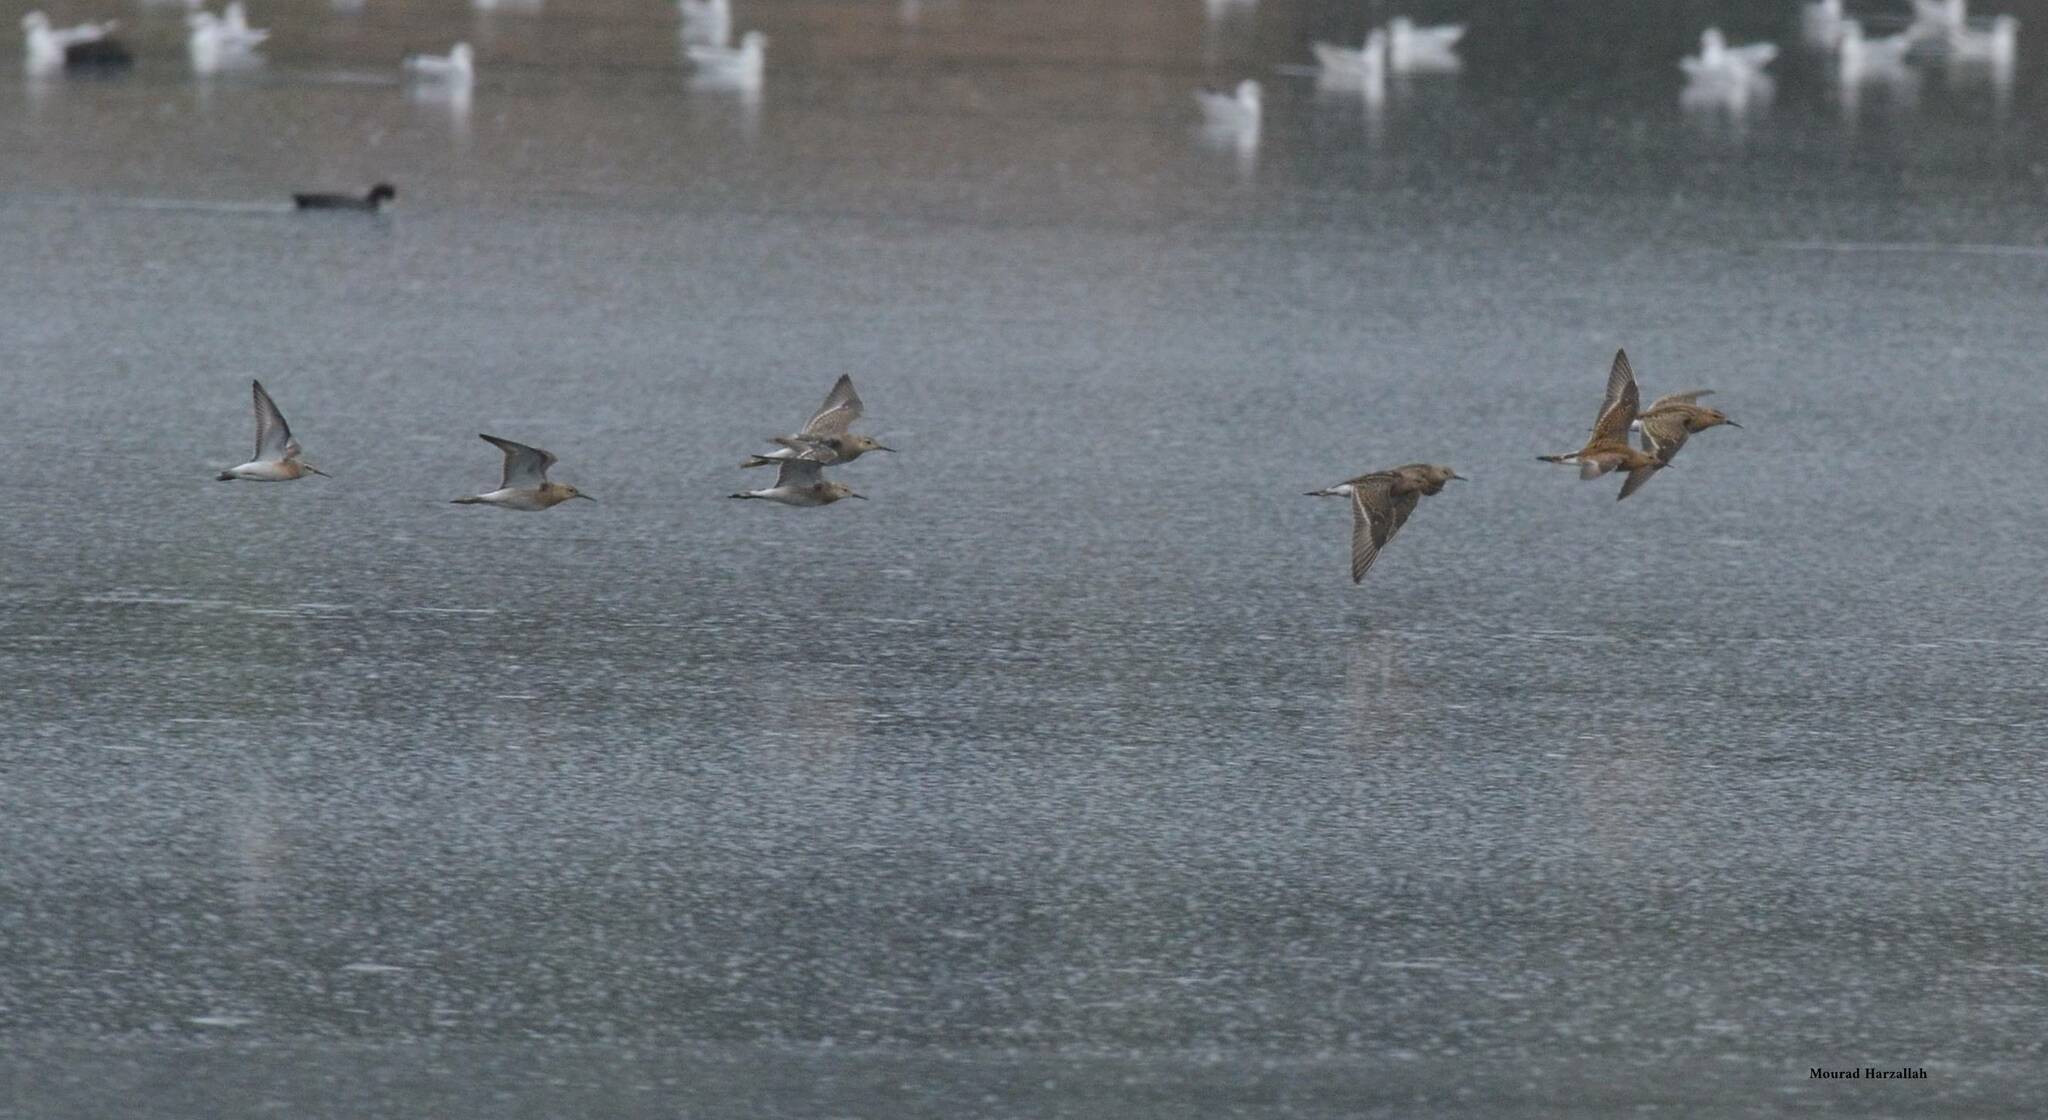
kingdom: Animalia
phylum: Chordata
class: Aves
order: Charadriiformes
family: Scolopacidae
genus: Calidris
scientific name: Calidris pugnax
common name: Ruff
